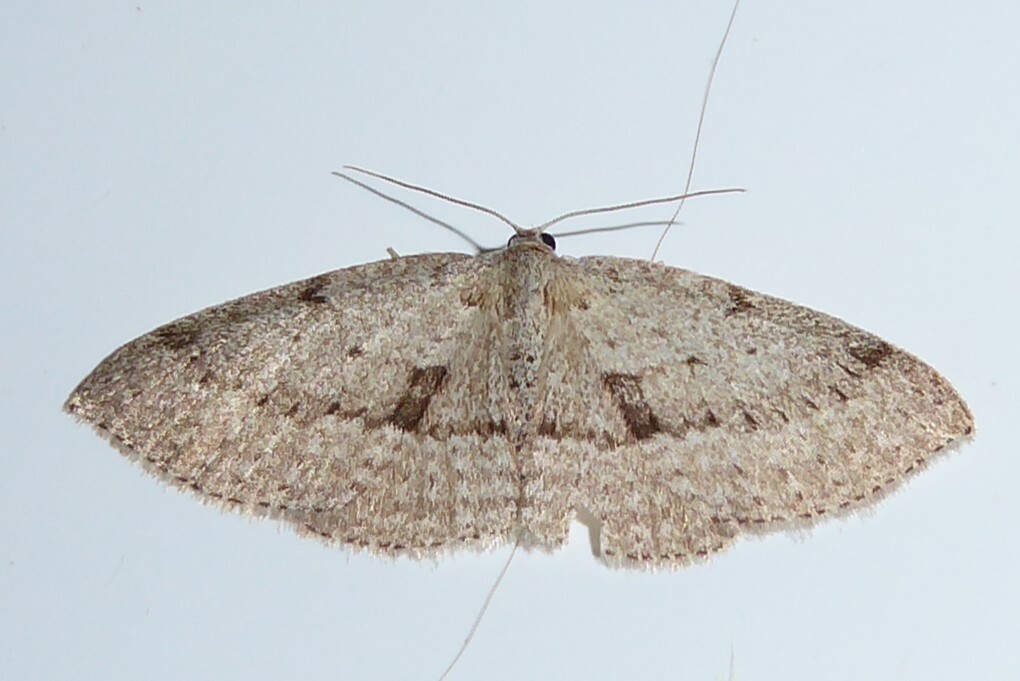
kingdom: Animalia
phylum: Arthropoda
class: Insecta
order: Lepidoptera
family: Geometridae
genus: Poecilasthena
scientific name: Poecilasthena schistaria
